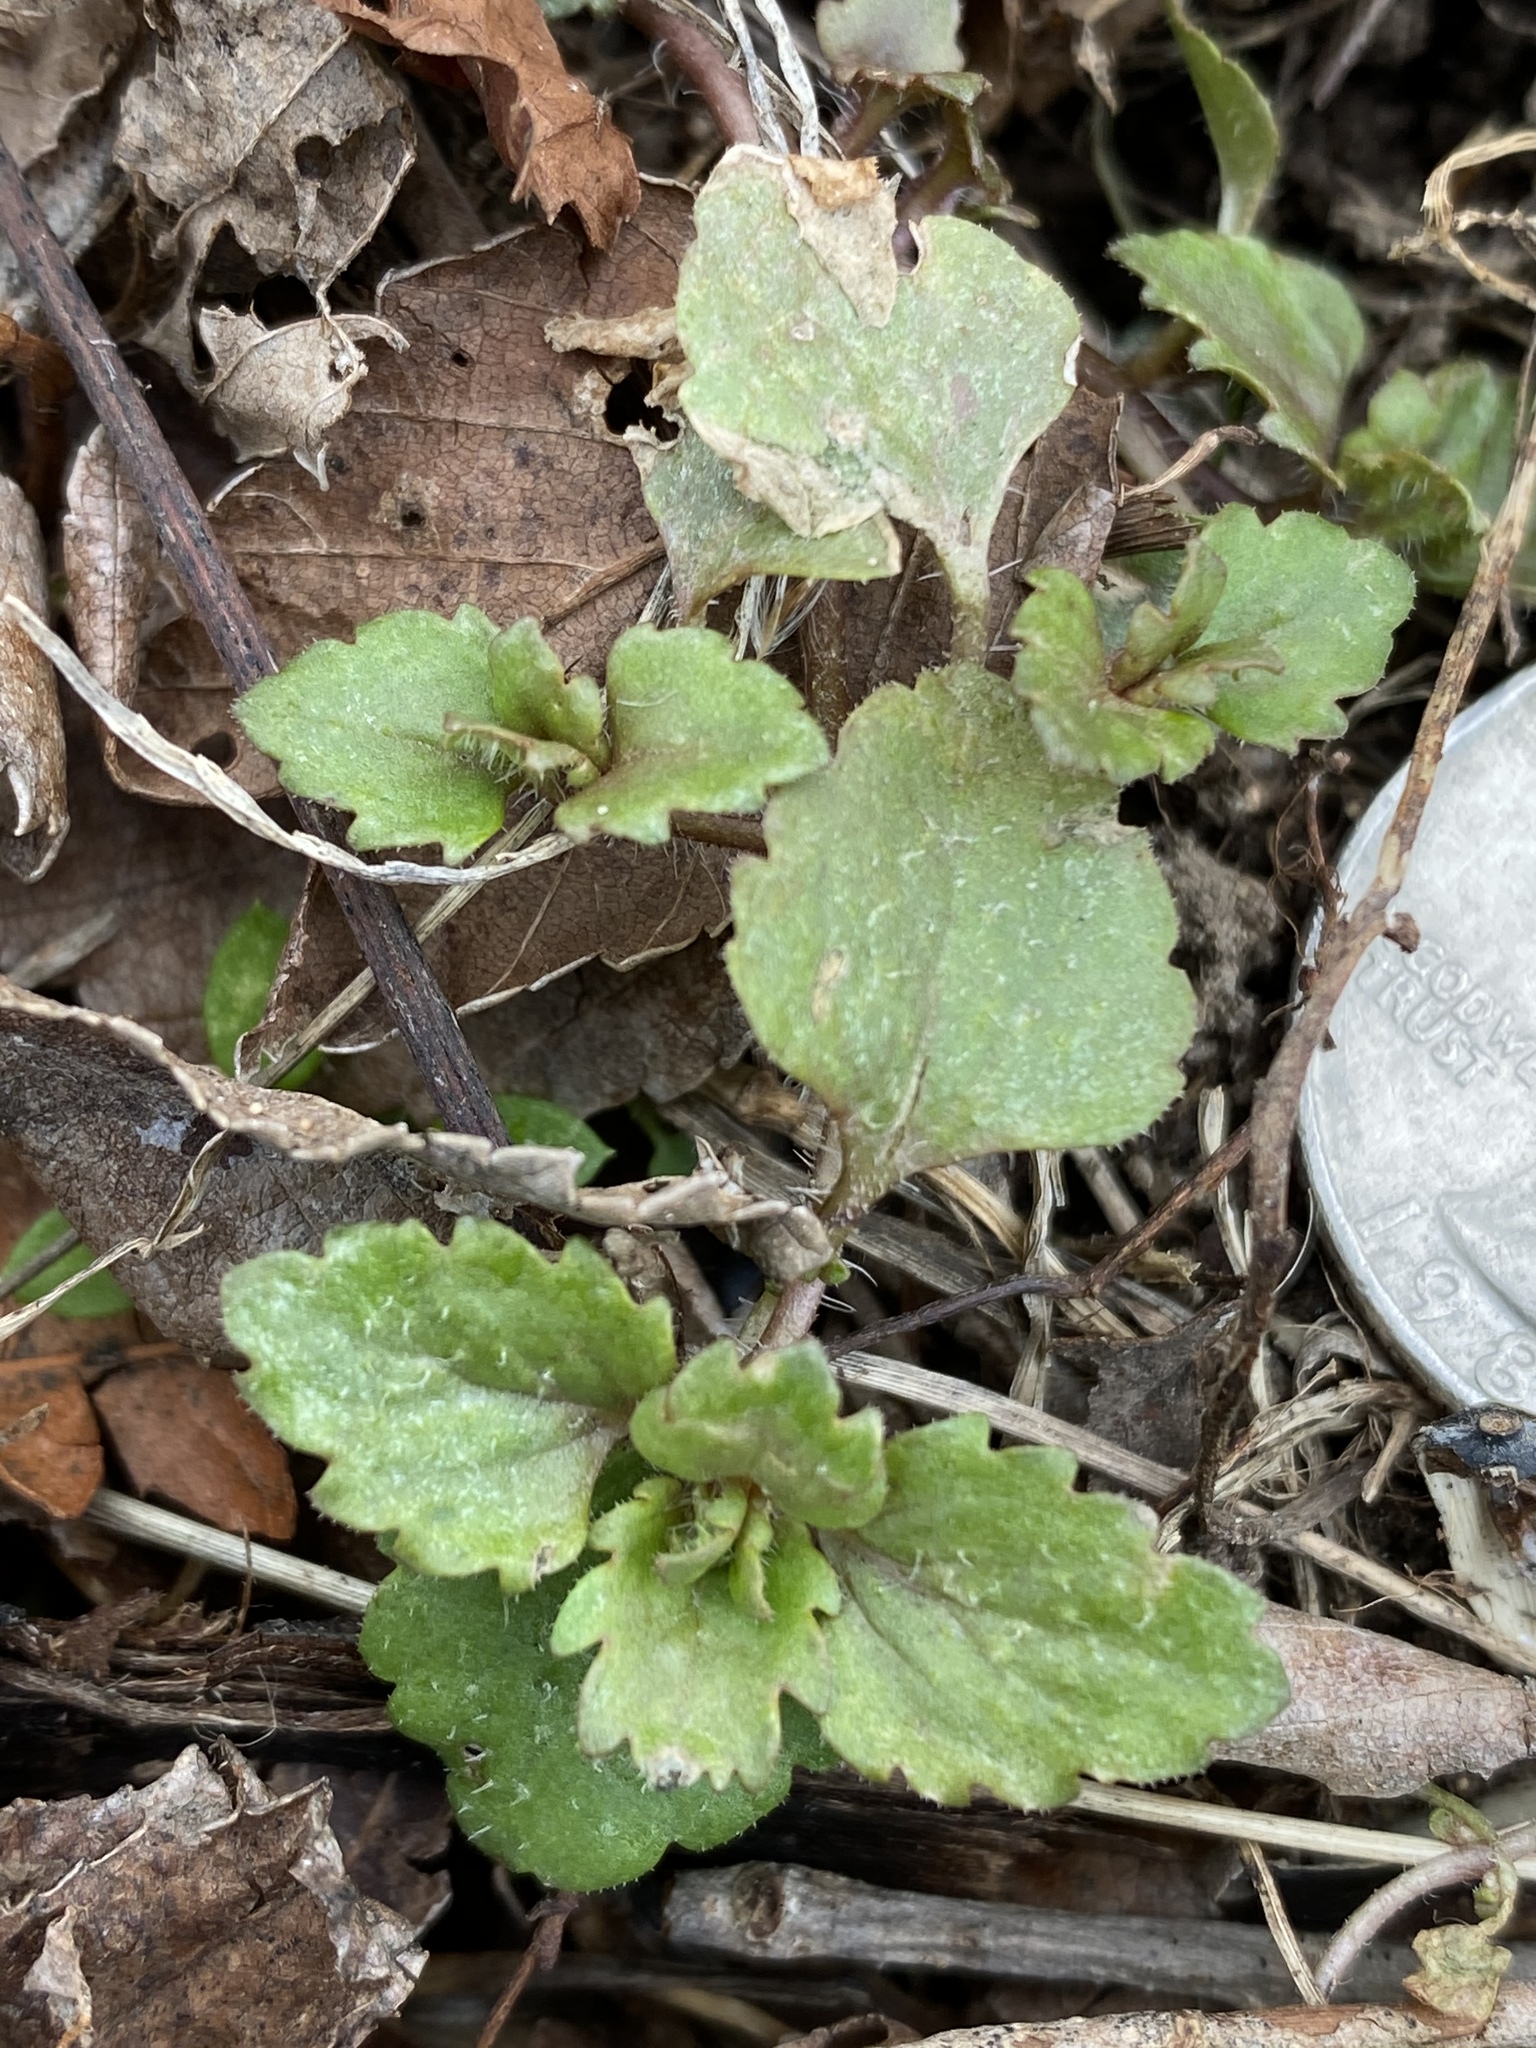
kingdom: Plantae
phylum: Tracheophyta
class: Magnoliopsida
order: Lamiales
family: Plantaginaceae
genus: Veronica
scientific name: Veronica persica
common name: Common field-speedwell
